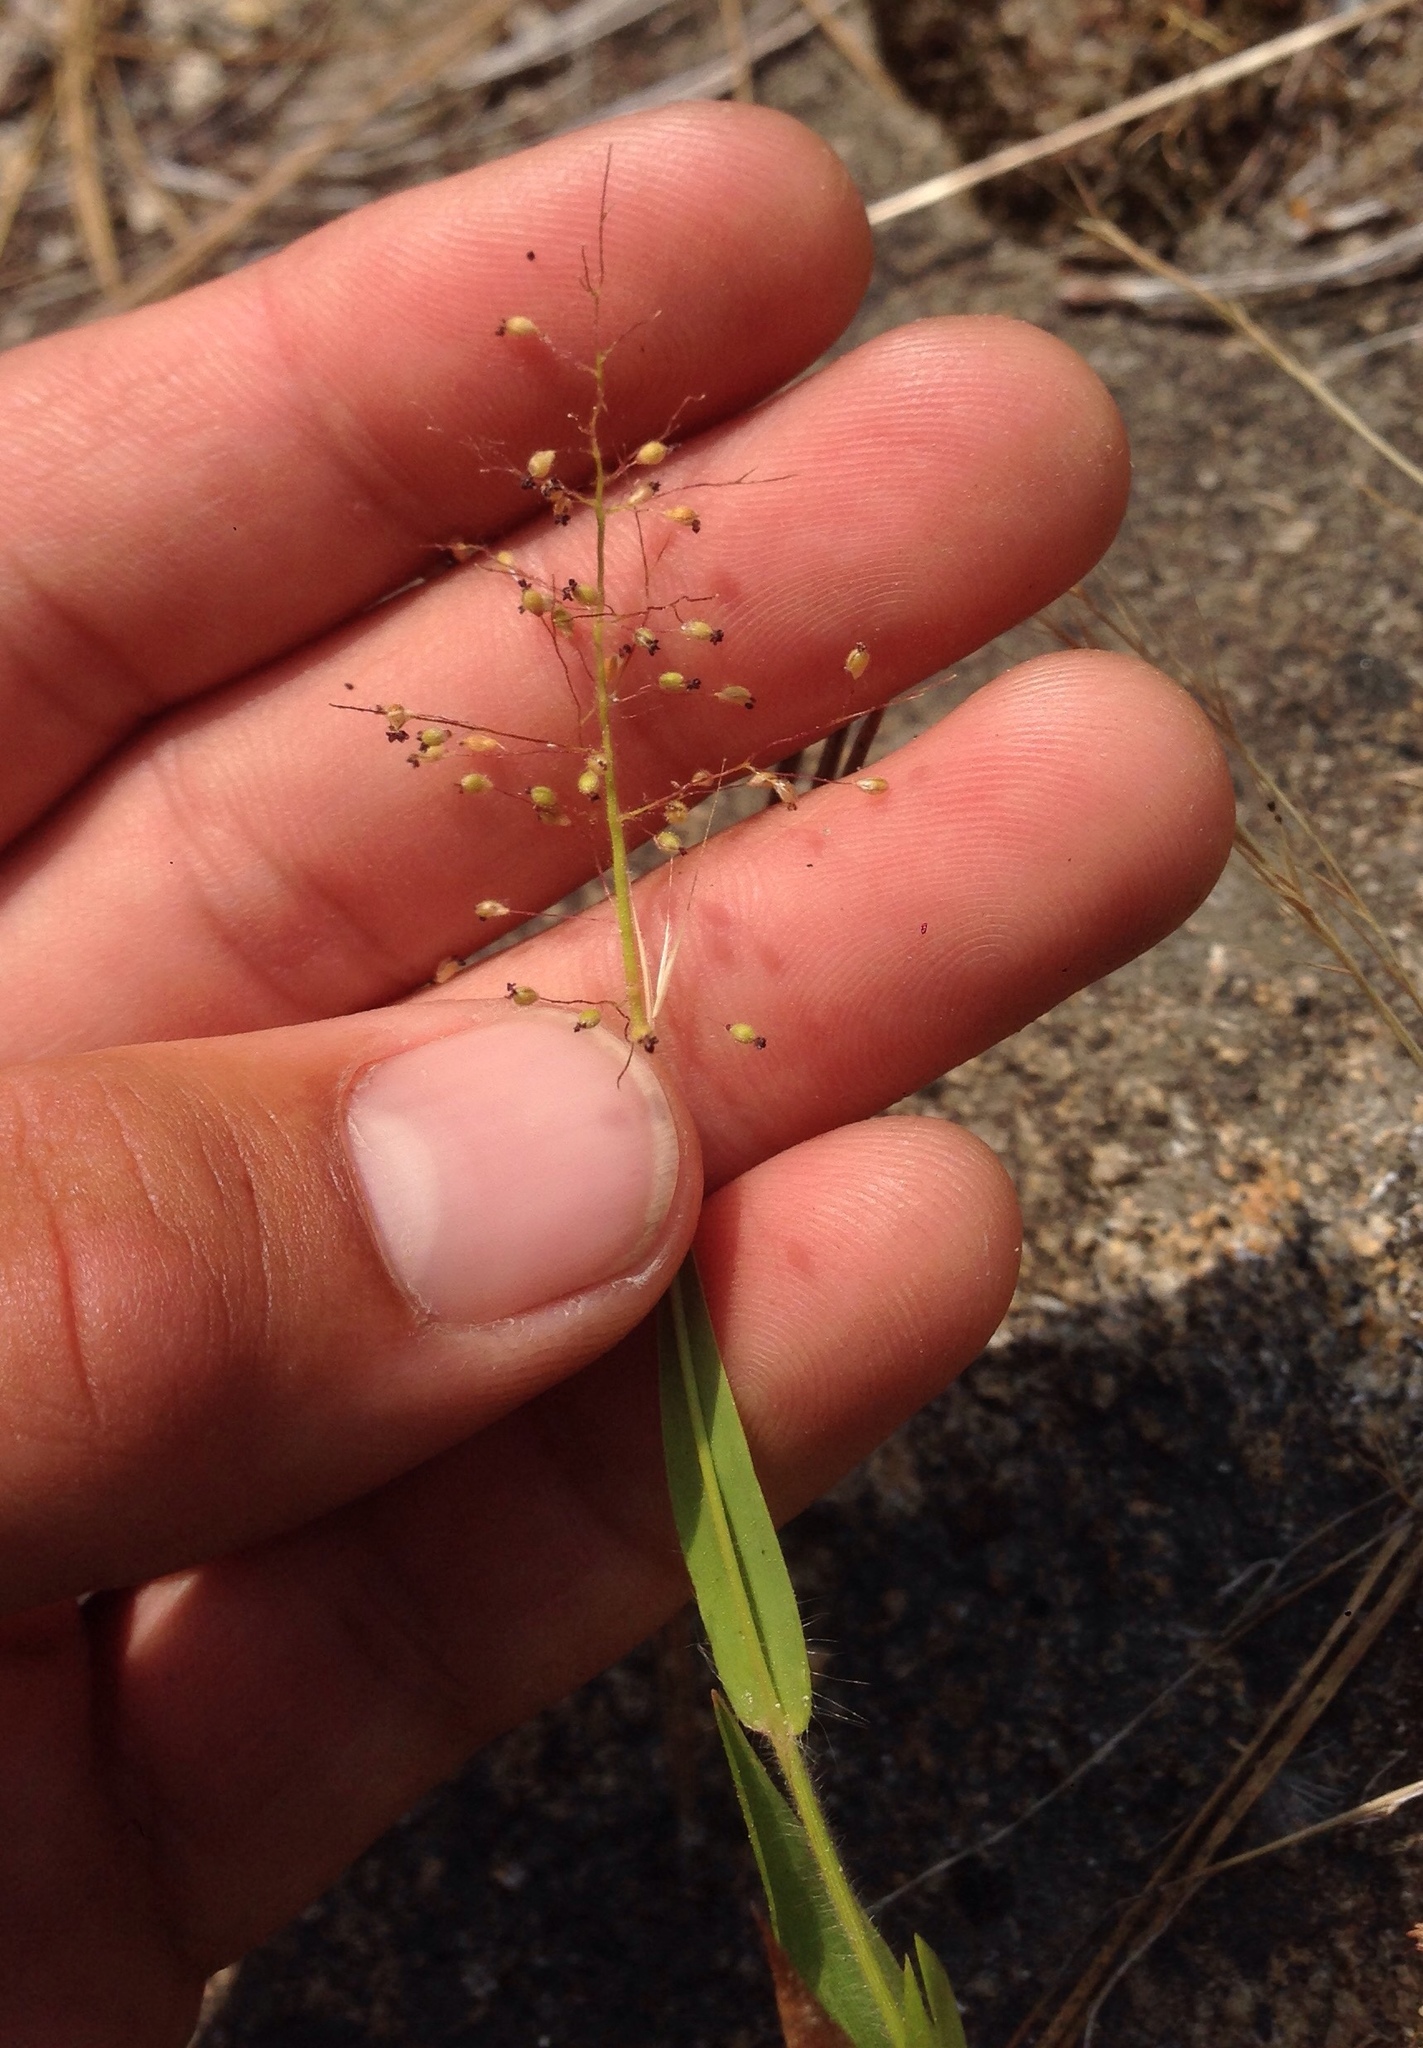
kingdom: Plantae
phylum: Tracheophyta
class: Liliopsida
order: Poales
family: Poaceae
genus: Dichanthelium
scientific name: Dichanthelium lanuginosum
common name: Woolly panicgrass
